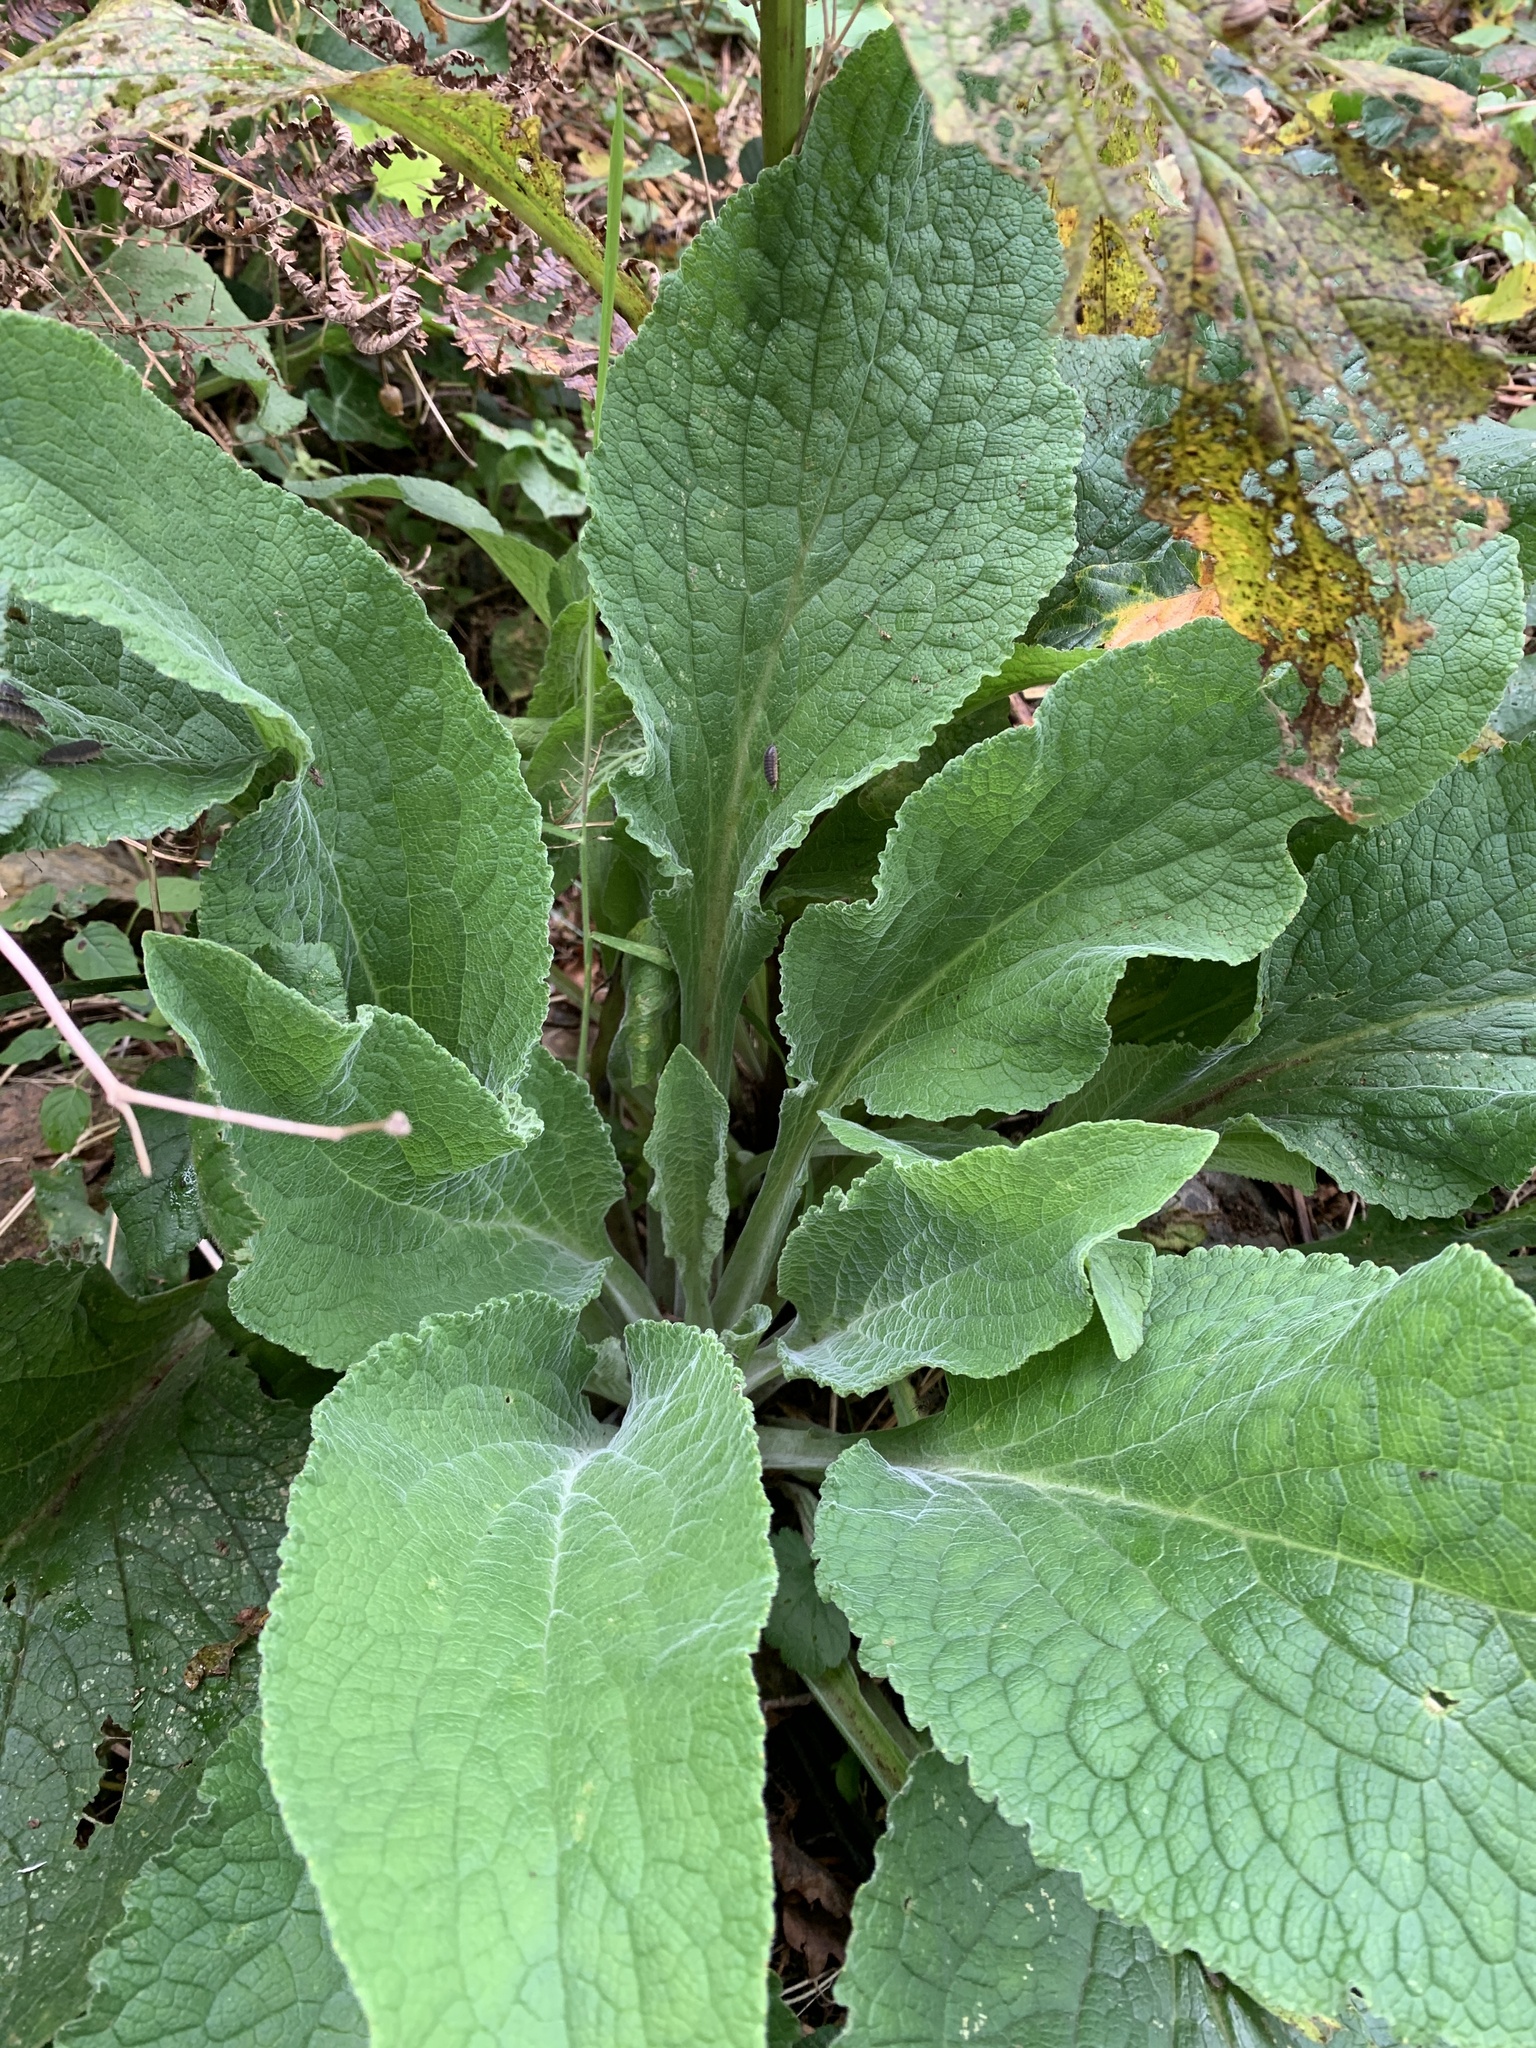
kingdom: Plantae
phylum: Tracheophyta
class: Magnoliopsida
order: Lamiales
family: Plantaginaceae
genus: Digitalis
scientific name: Digitalis purpurea
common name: Foxglove
